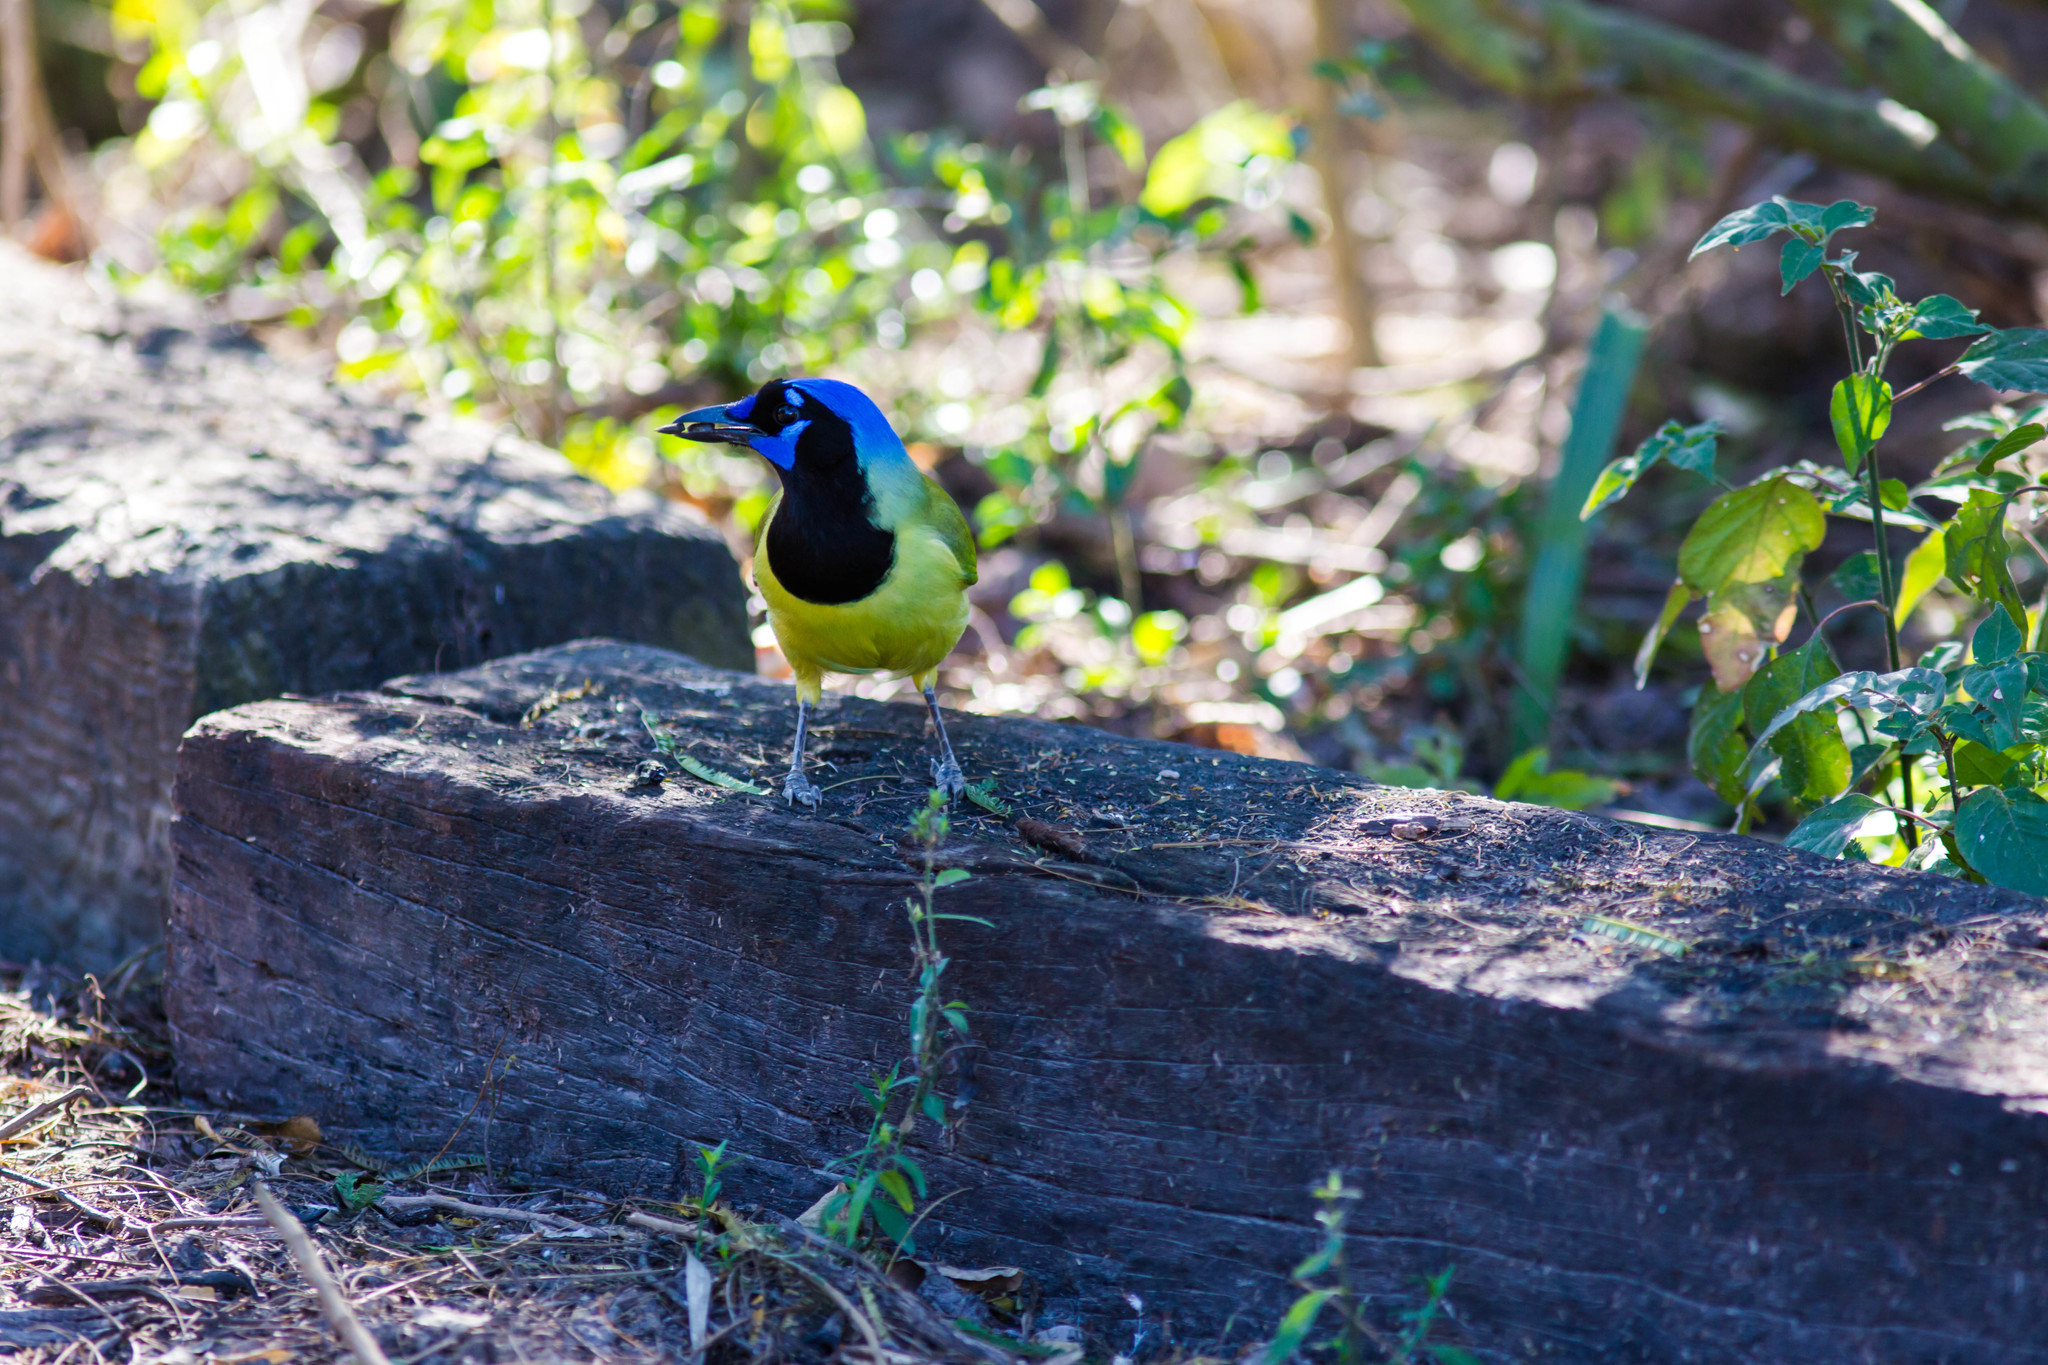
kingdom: Animalia
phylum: Chordata
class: Aves
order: Passeriformes
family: Corvidae
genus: Cyanocorax
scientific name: Cyanocorax yncas
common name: Green jay
